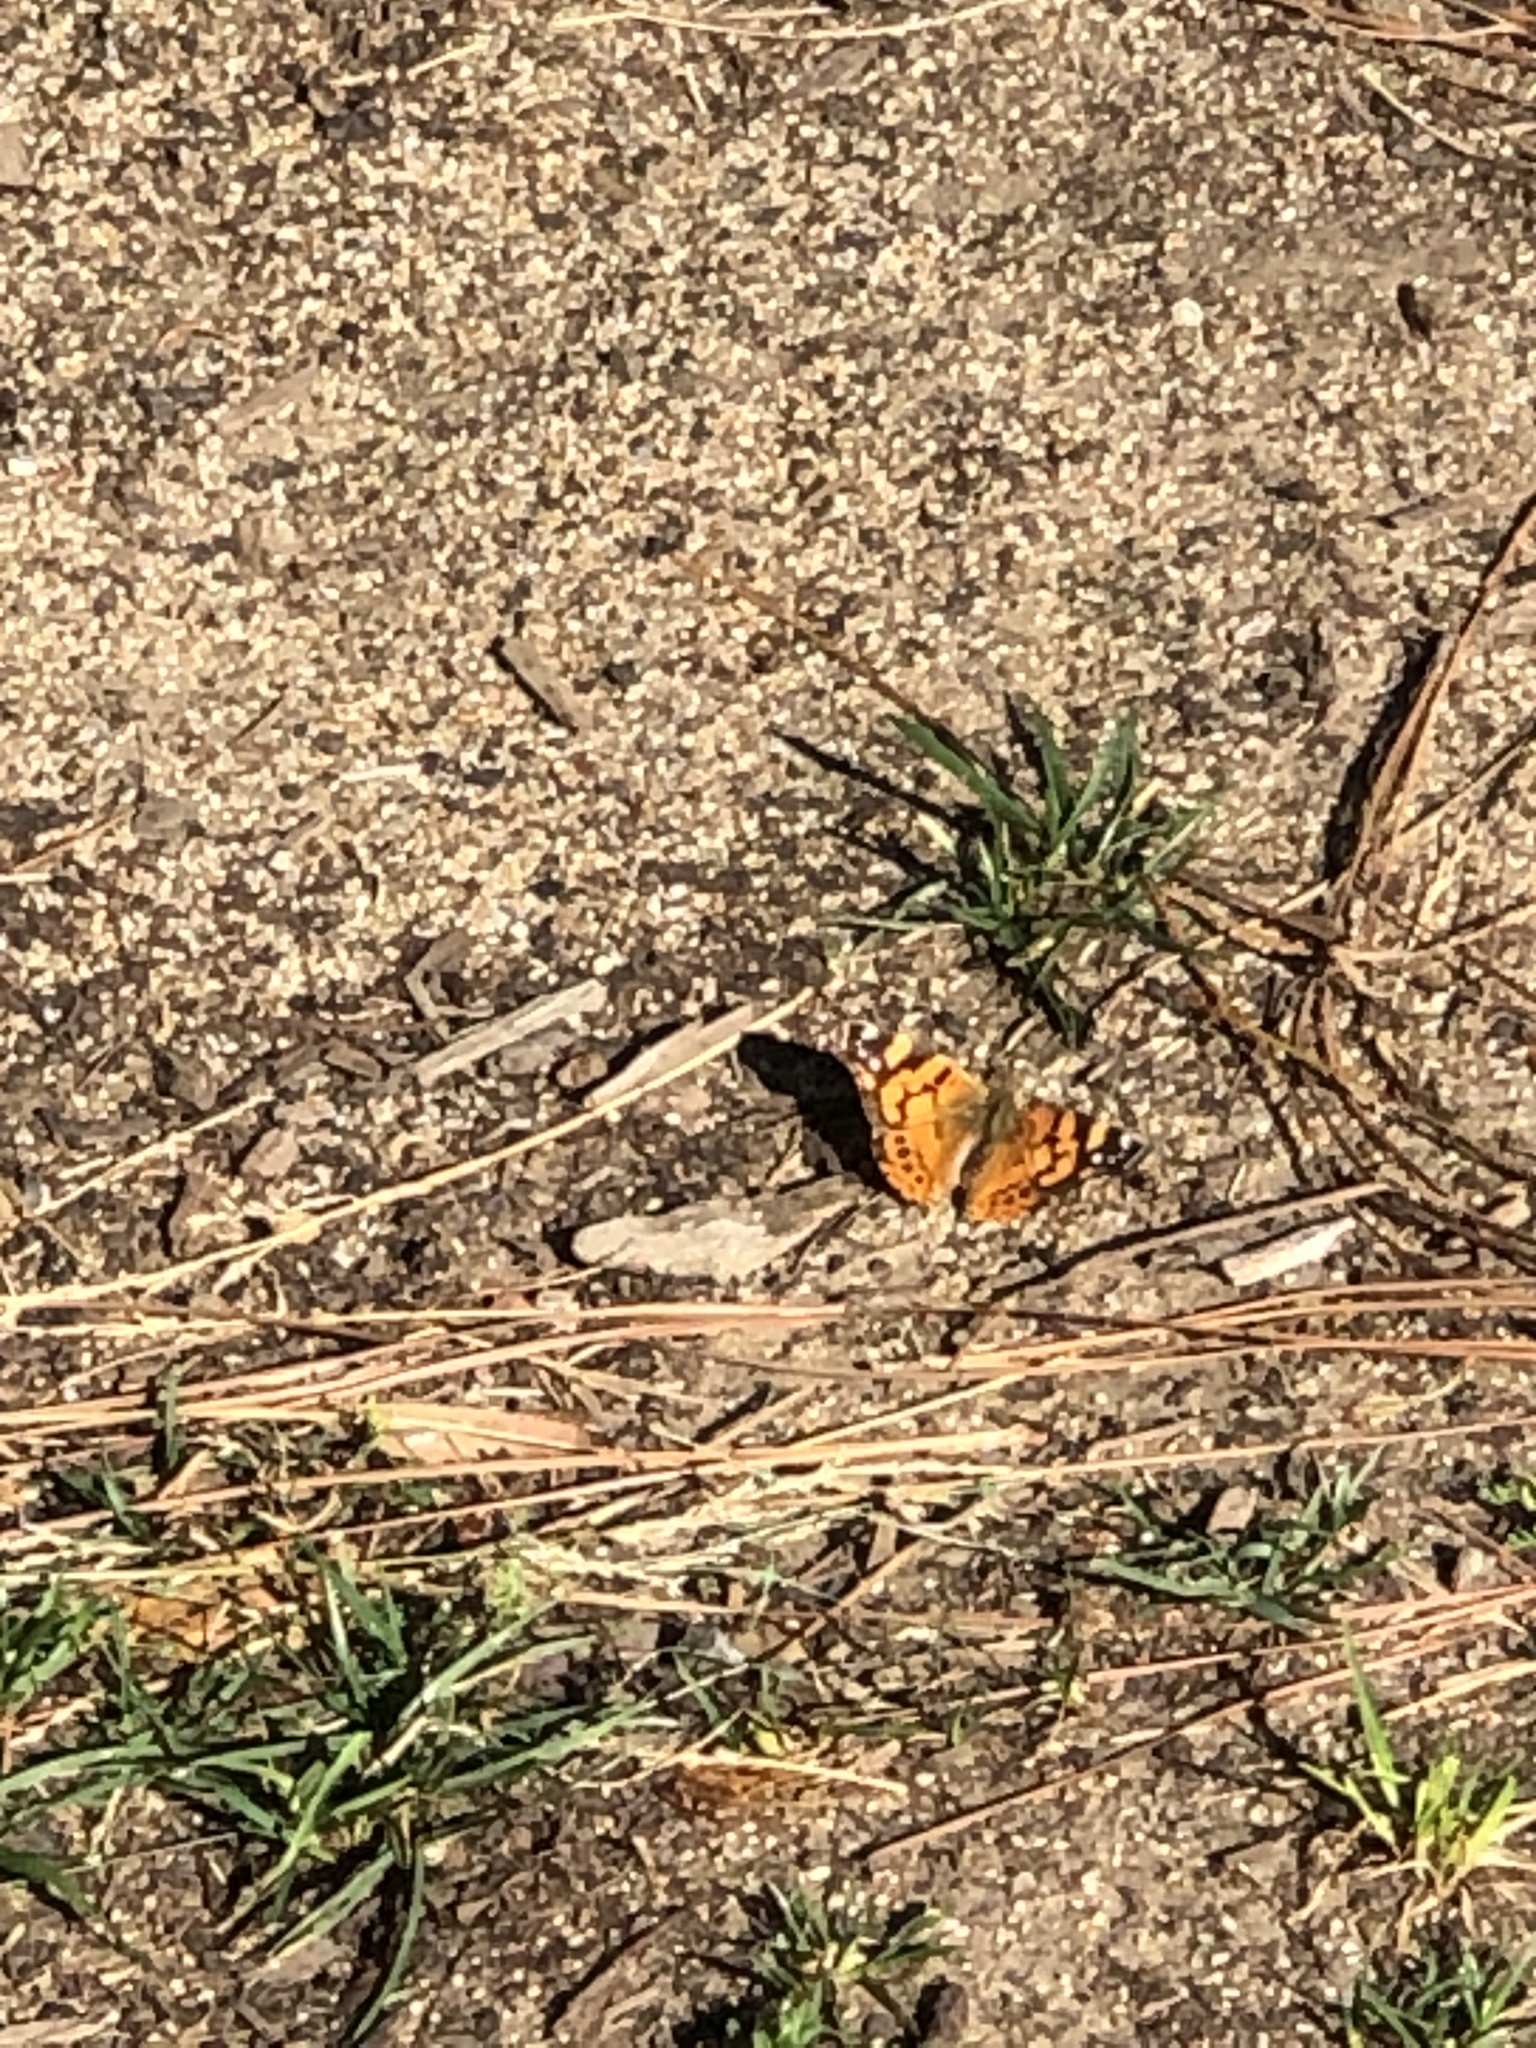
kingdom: Animalia
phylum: Arthropoda
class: Insecta
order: Lepidoptera
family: Nymphalidae
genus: Vanessa
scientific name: Vanessa annabella
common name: West coast lady
